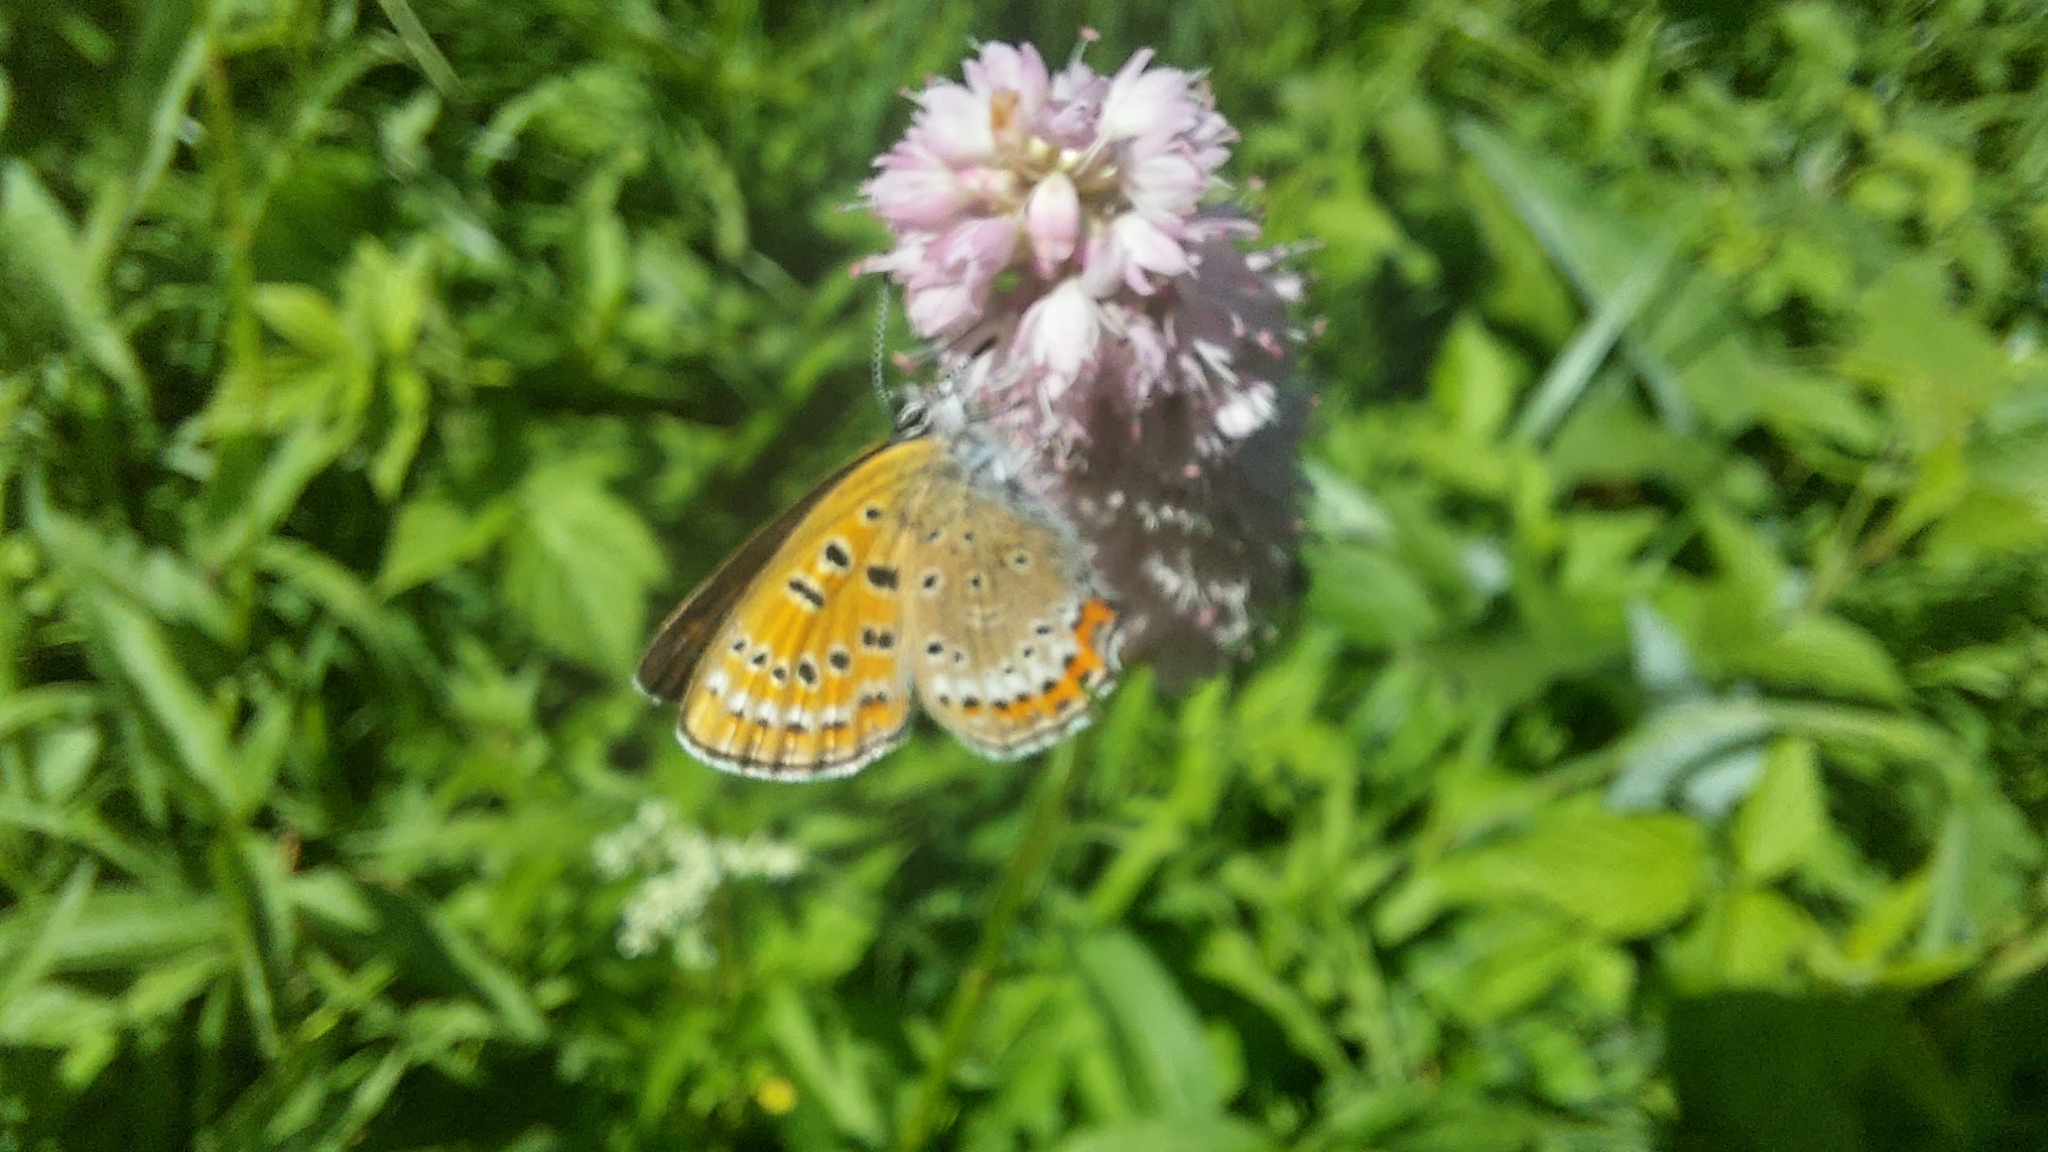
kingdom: Animalia
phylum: Arthropoda
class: Insecta
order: Lepidoptera
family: Lycaenidae
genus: Helleia
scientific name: Helleia helle
